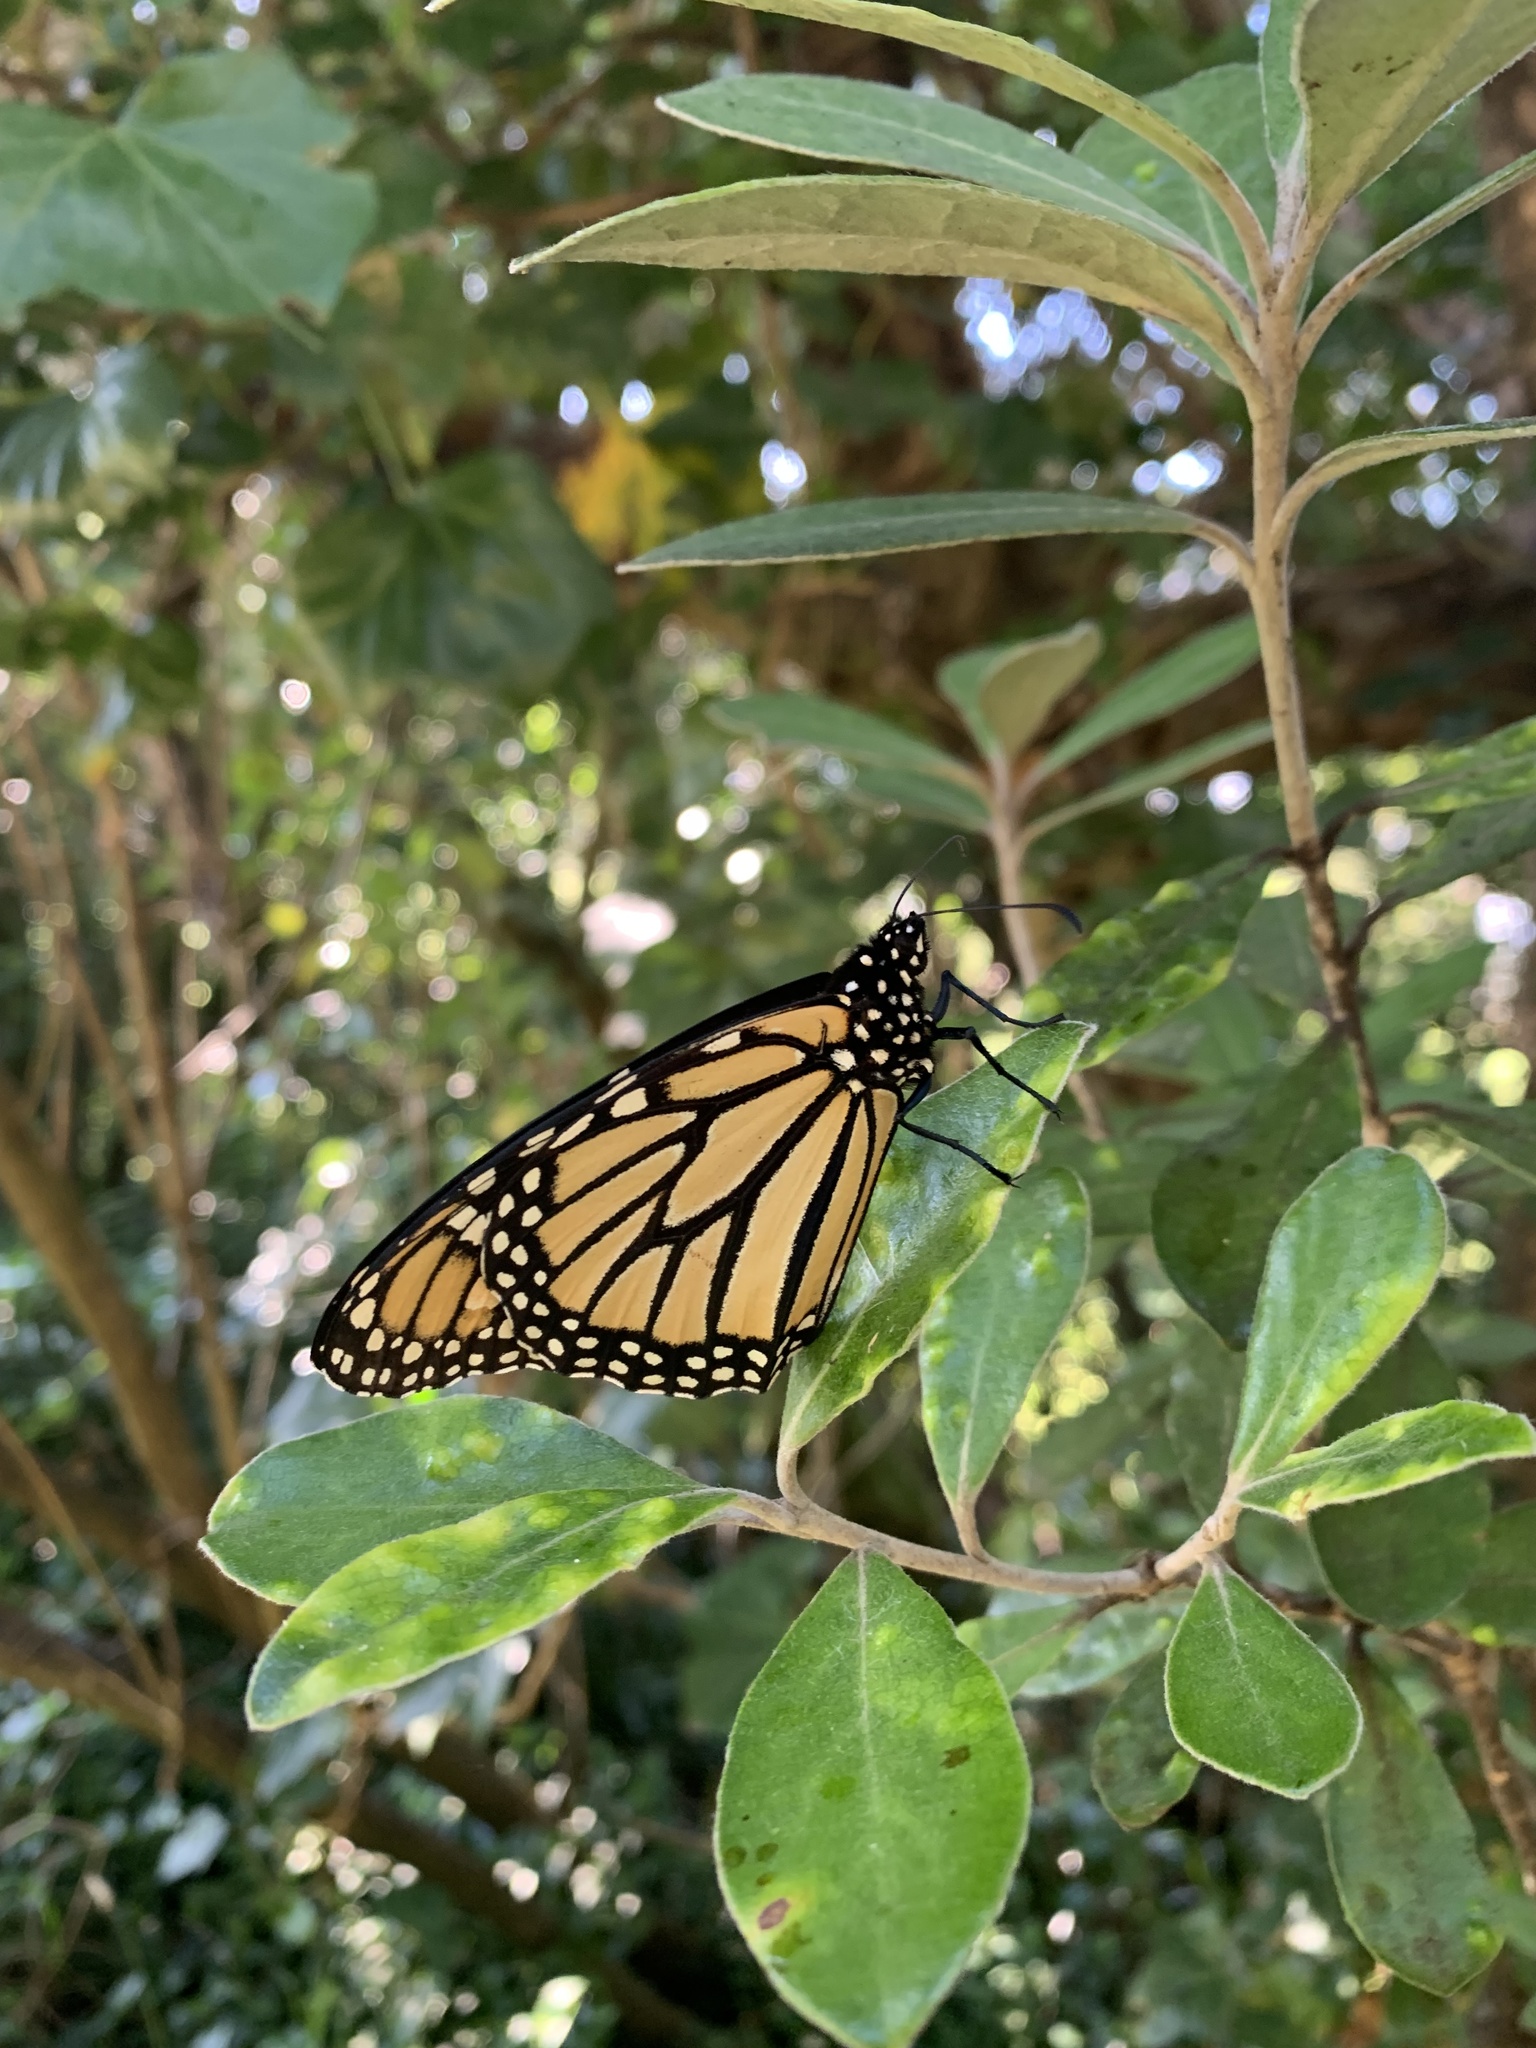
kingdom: Animalia
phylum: Arthropoda
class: Insecta
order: Lepidoptera
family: Nymphalidae
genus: Danaus
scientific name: Danaus plexippus
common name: Monarch
